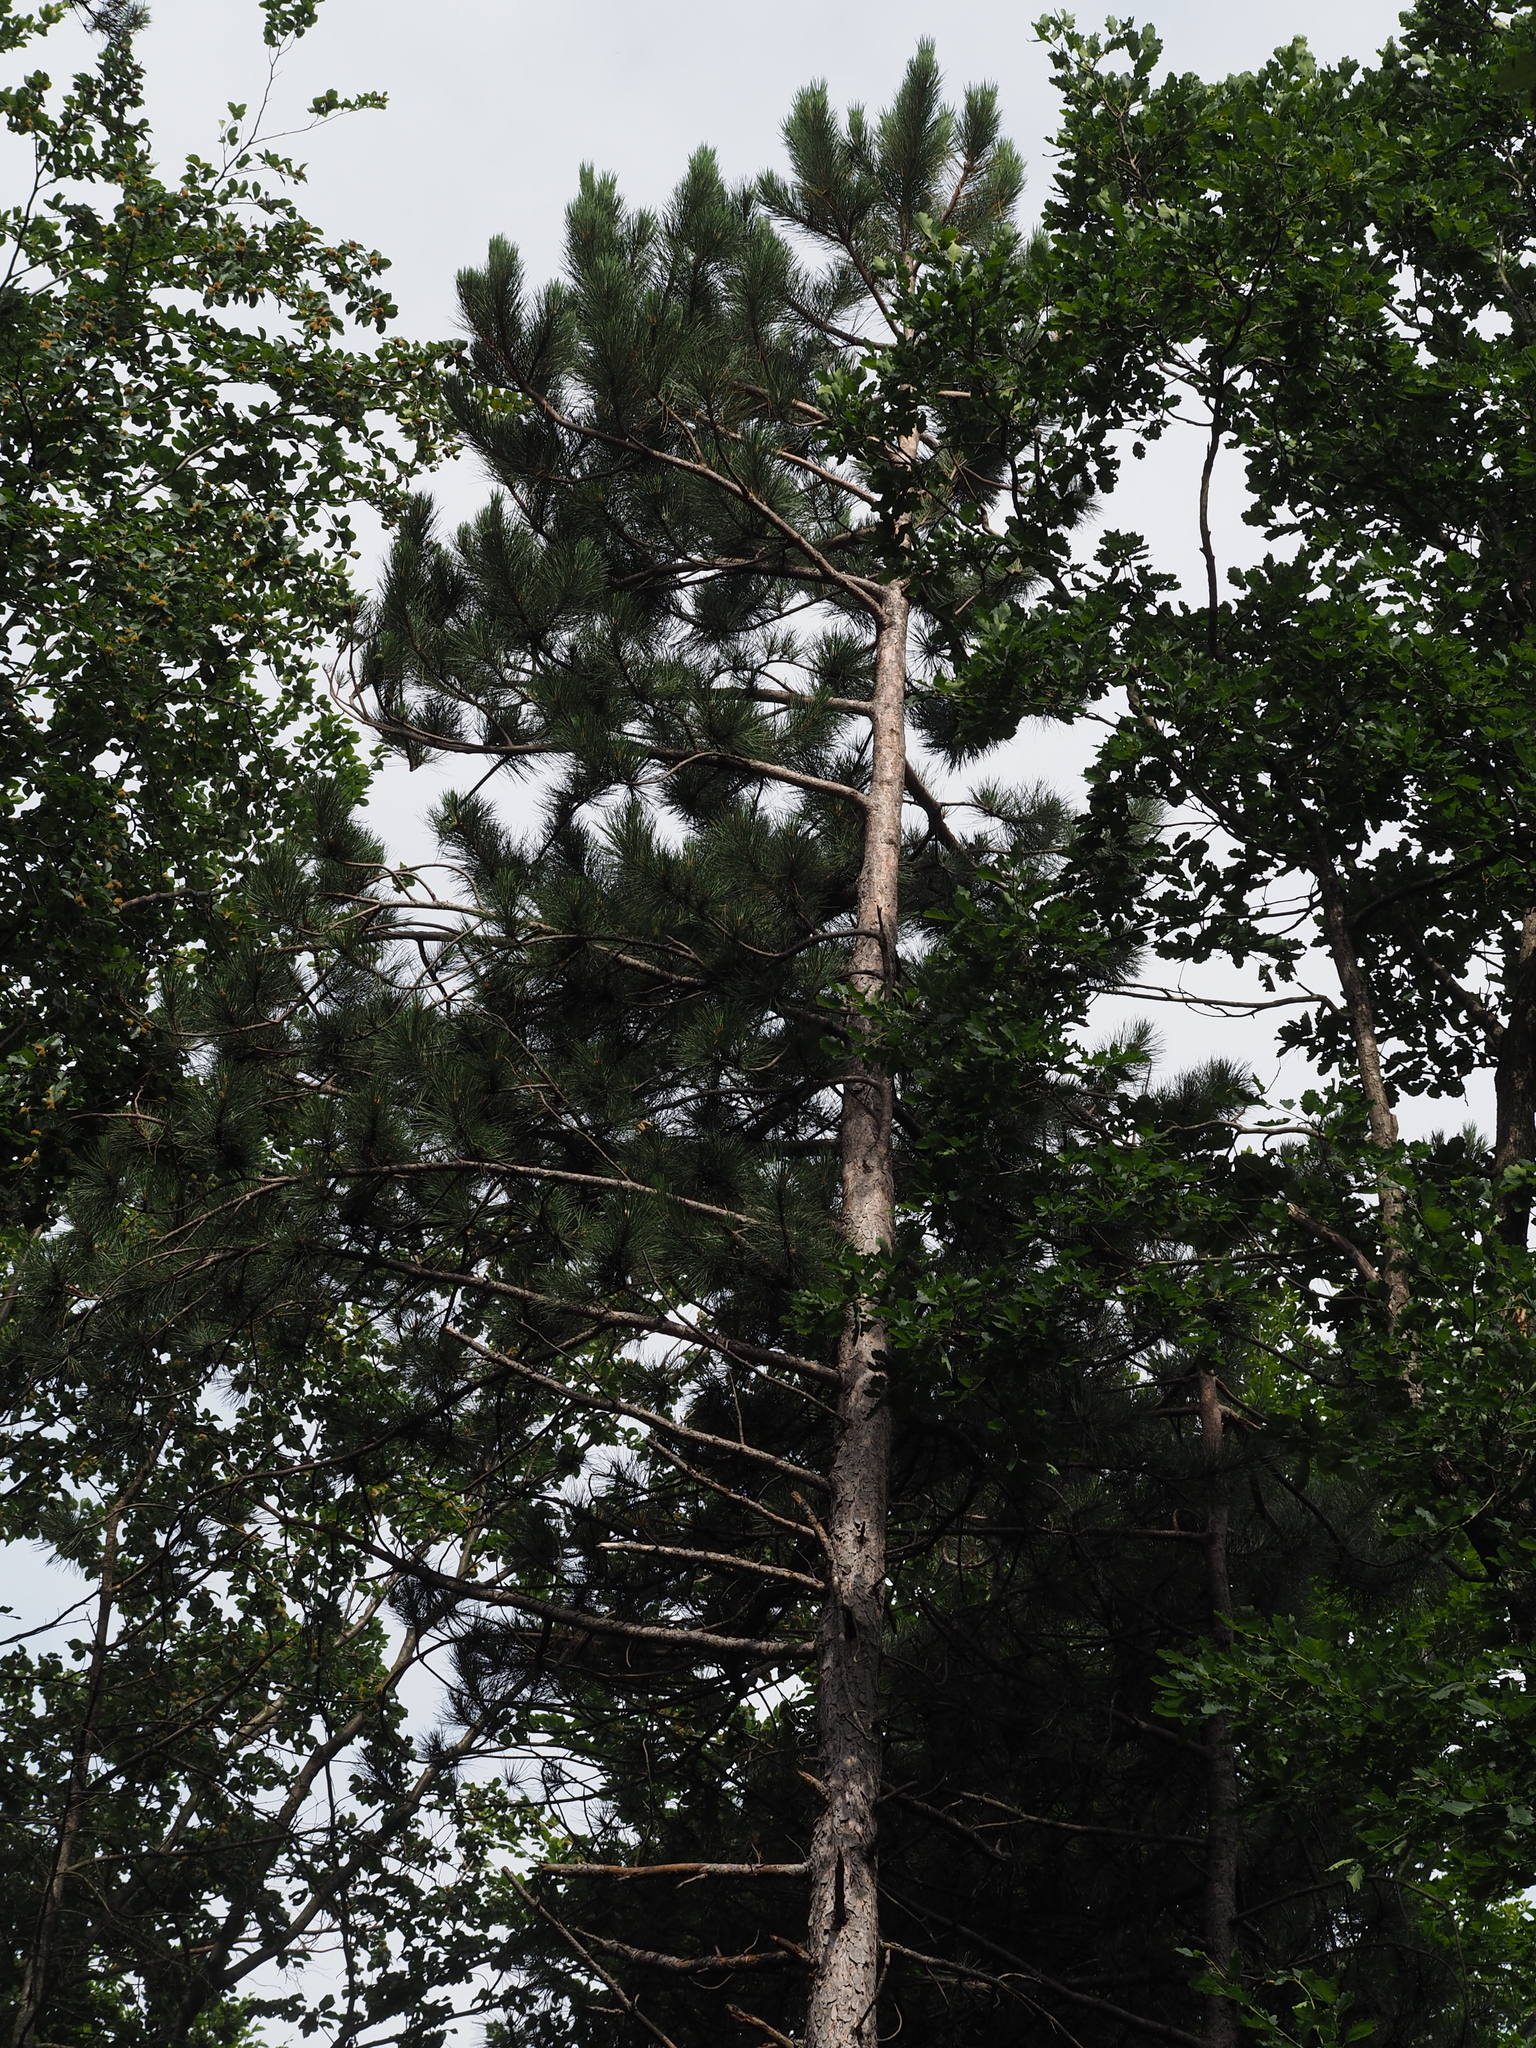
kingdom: Plantae
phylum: Tracheophyta
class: Pinopsida
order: Pinales
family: Pinaceae
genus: Pinus
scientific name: Pinus nigra
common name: Austrian pine
